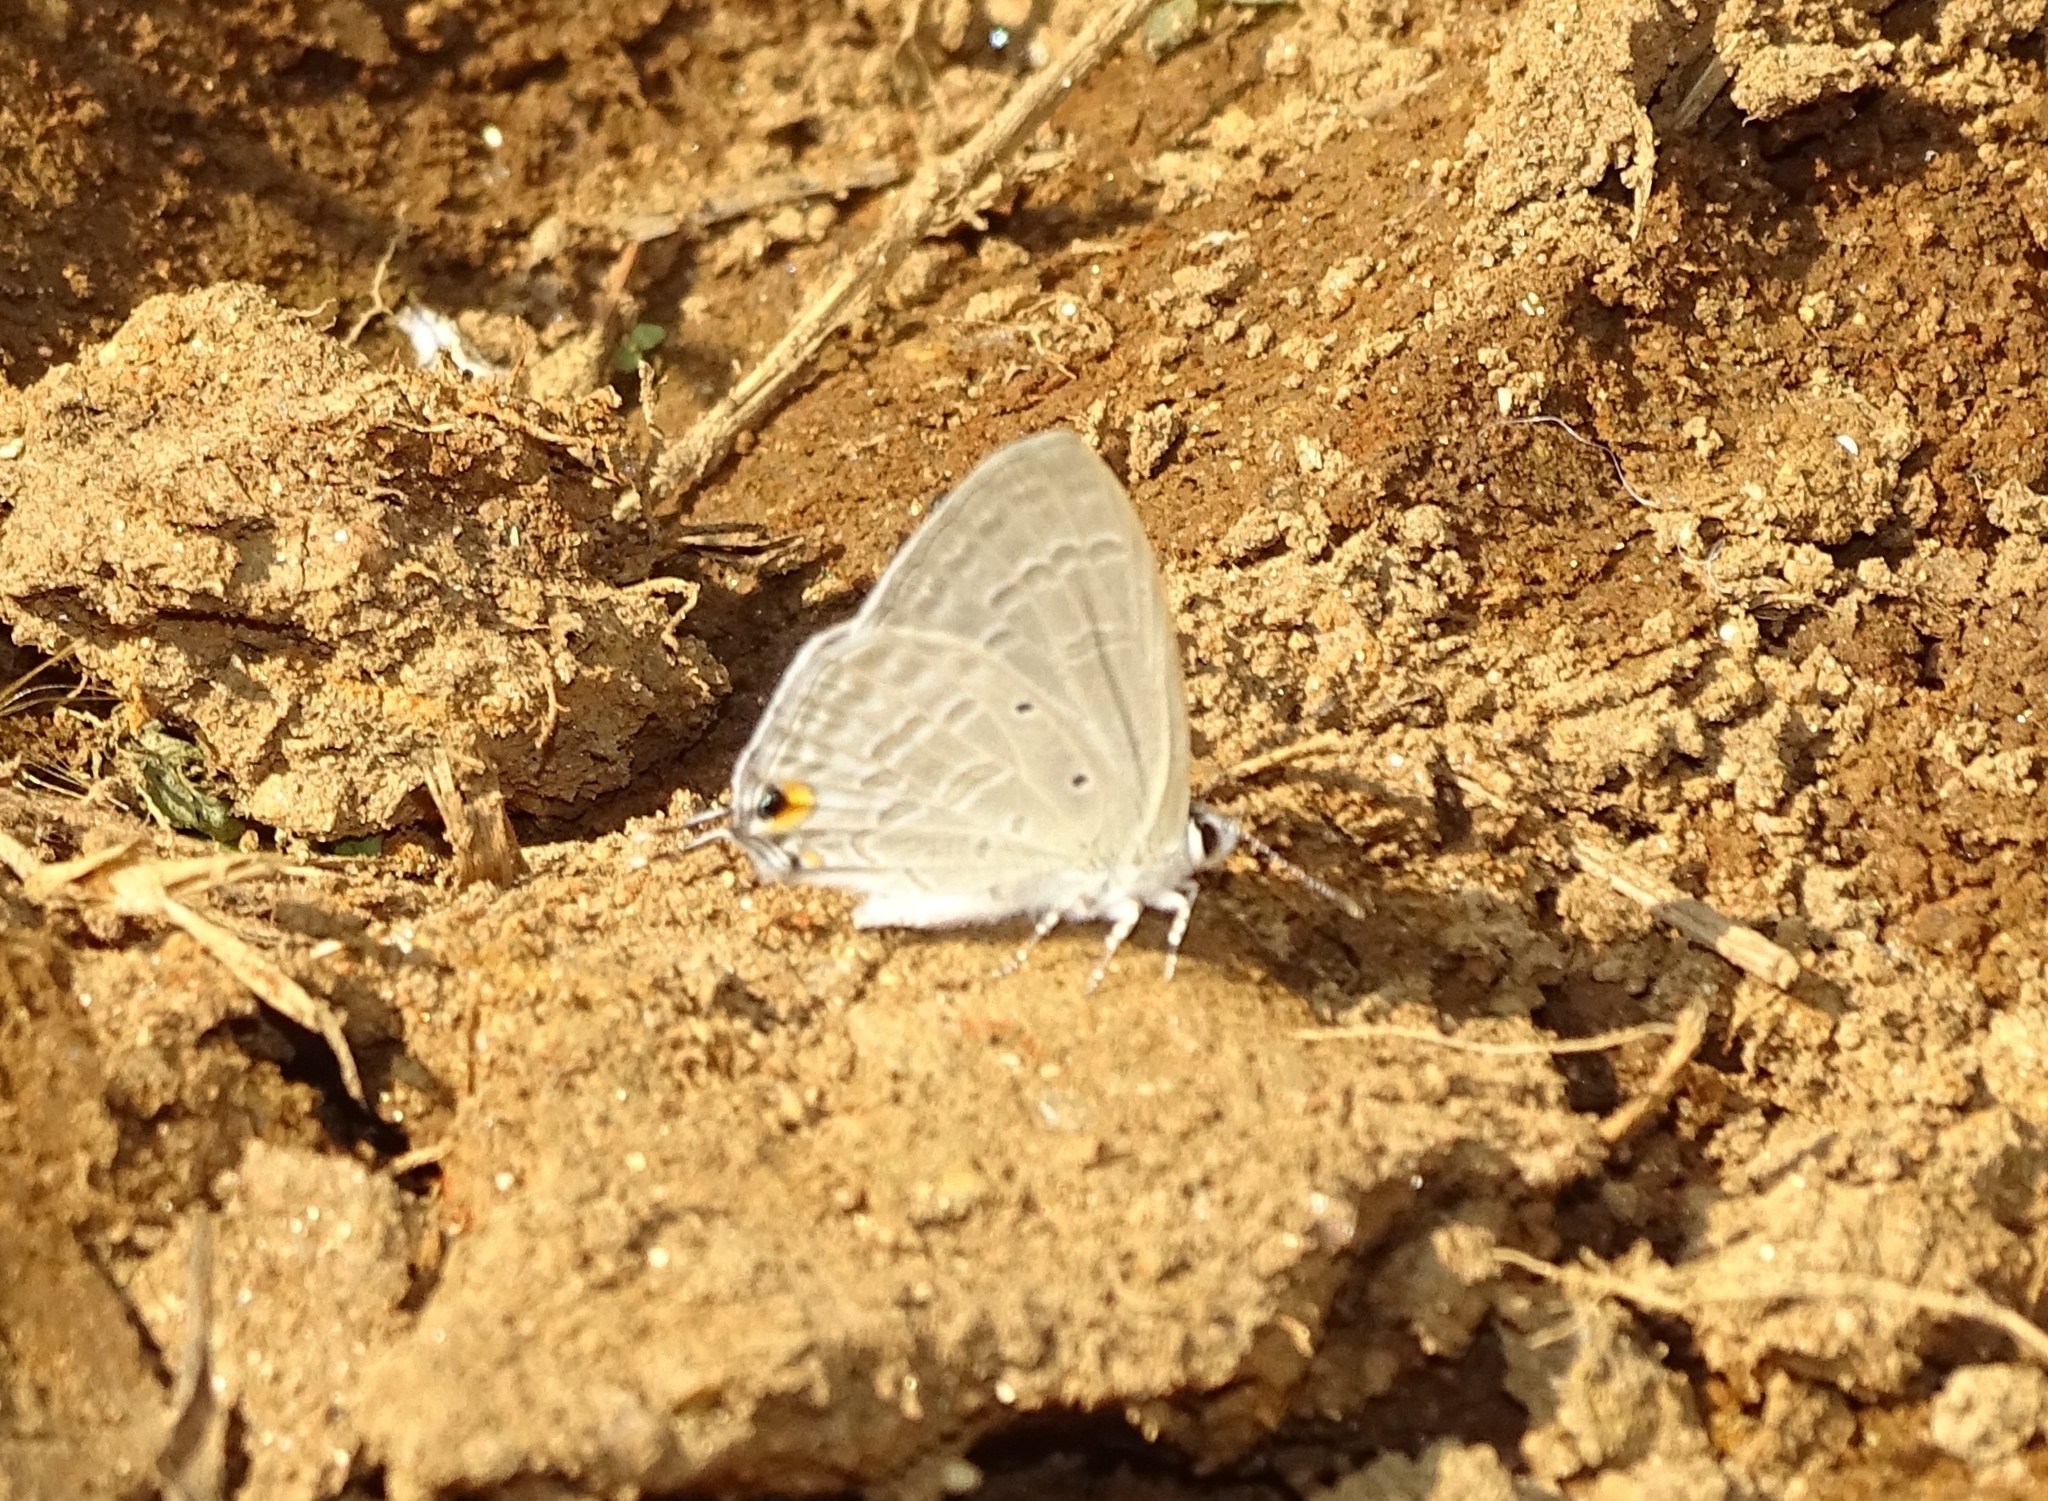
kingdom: Animalia
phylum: Arthropoda
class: Insecta
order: Lepidoptera
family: Lycaenidae
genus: Catochrysops
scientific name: Catochrysops strabo
